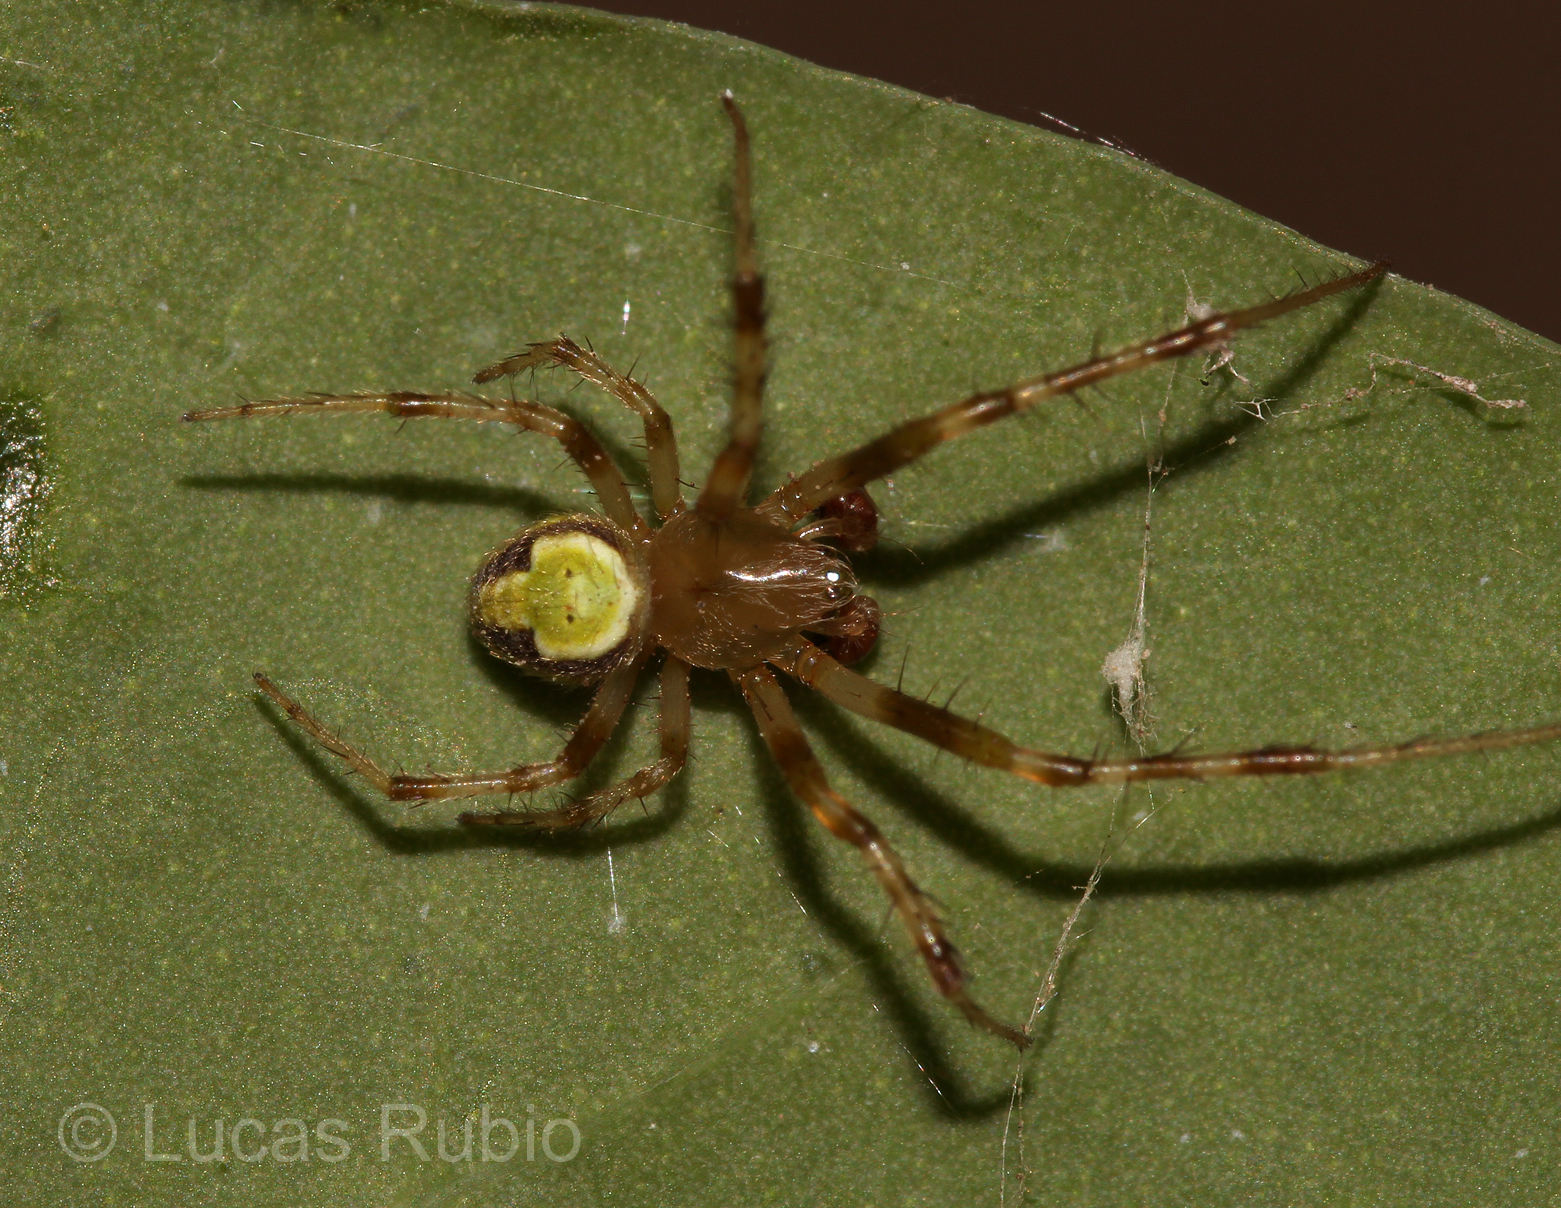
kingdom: Animalia
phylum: Arthropoda
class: Arachnida
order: Araneae
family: Araneidae
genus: Araneus
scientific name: Araneus lathyrinus
